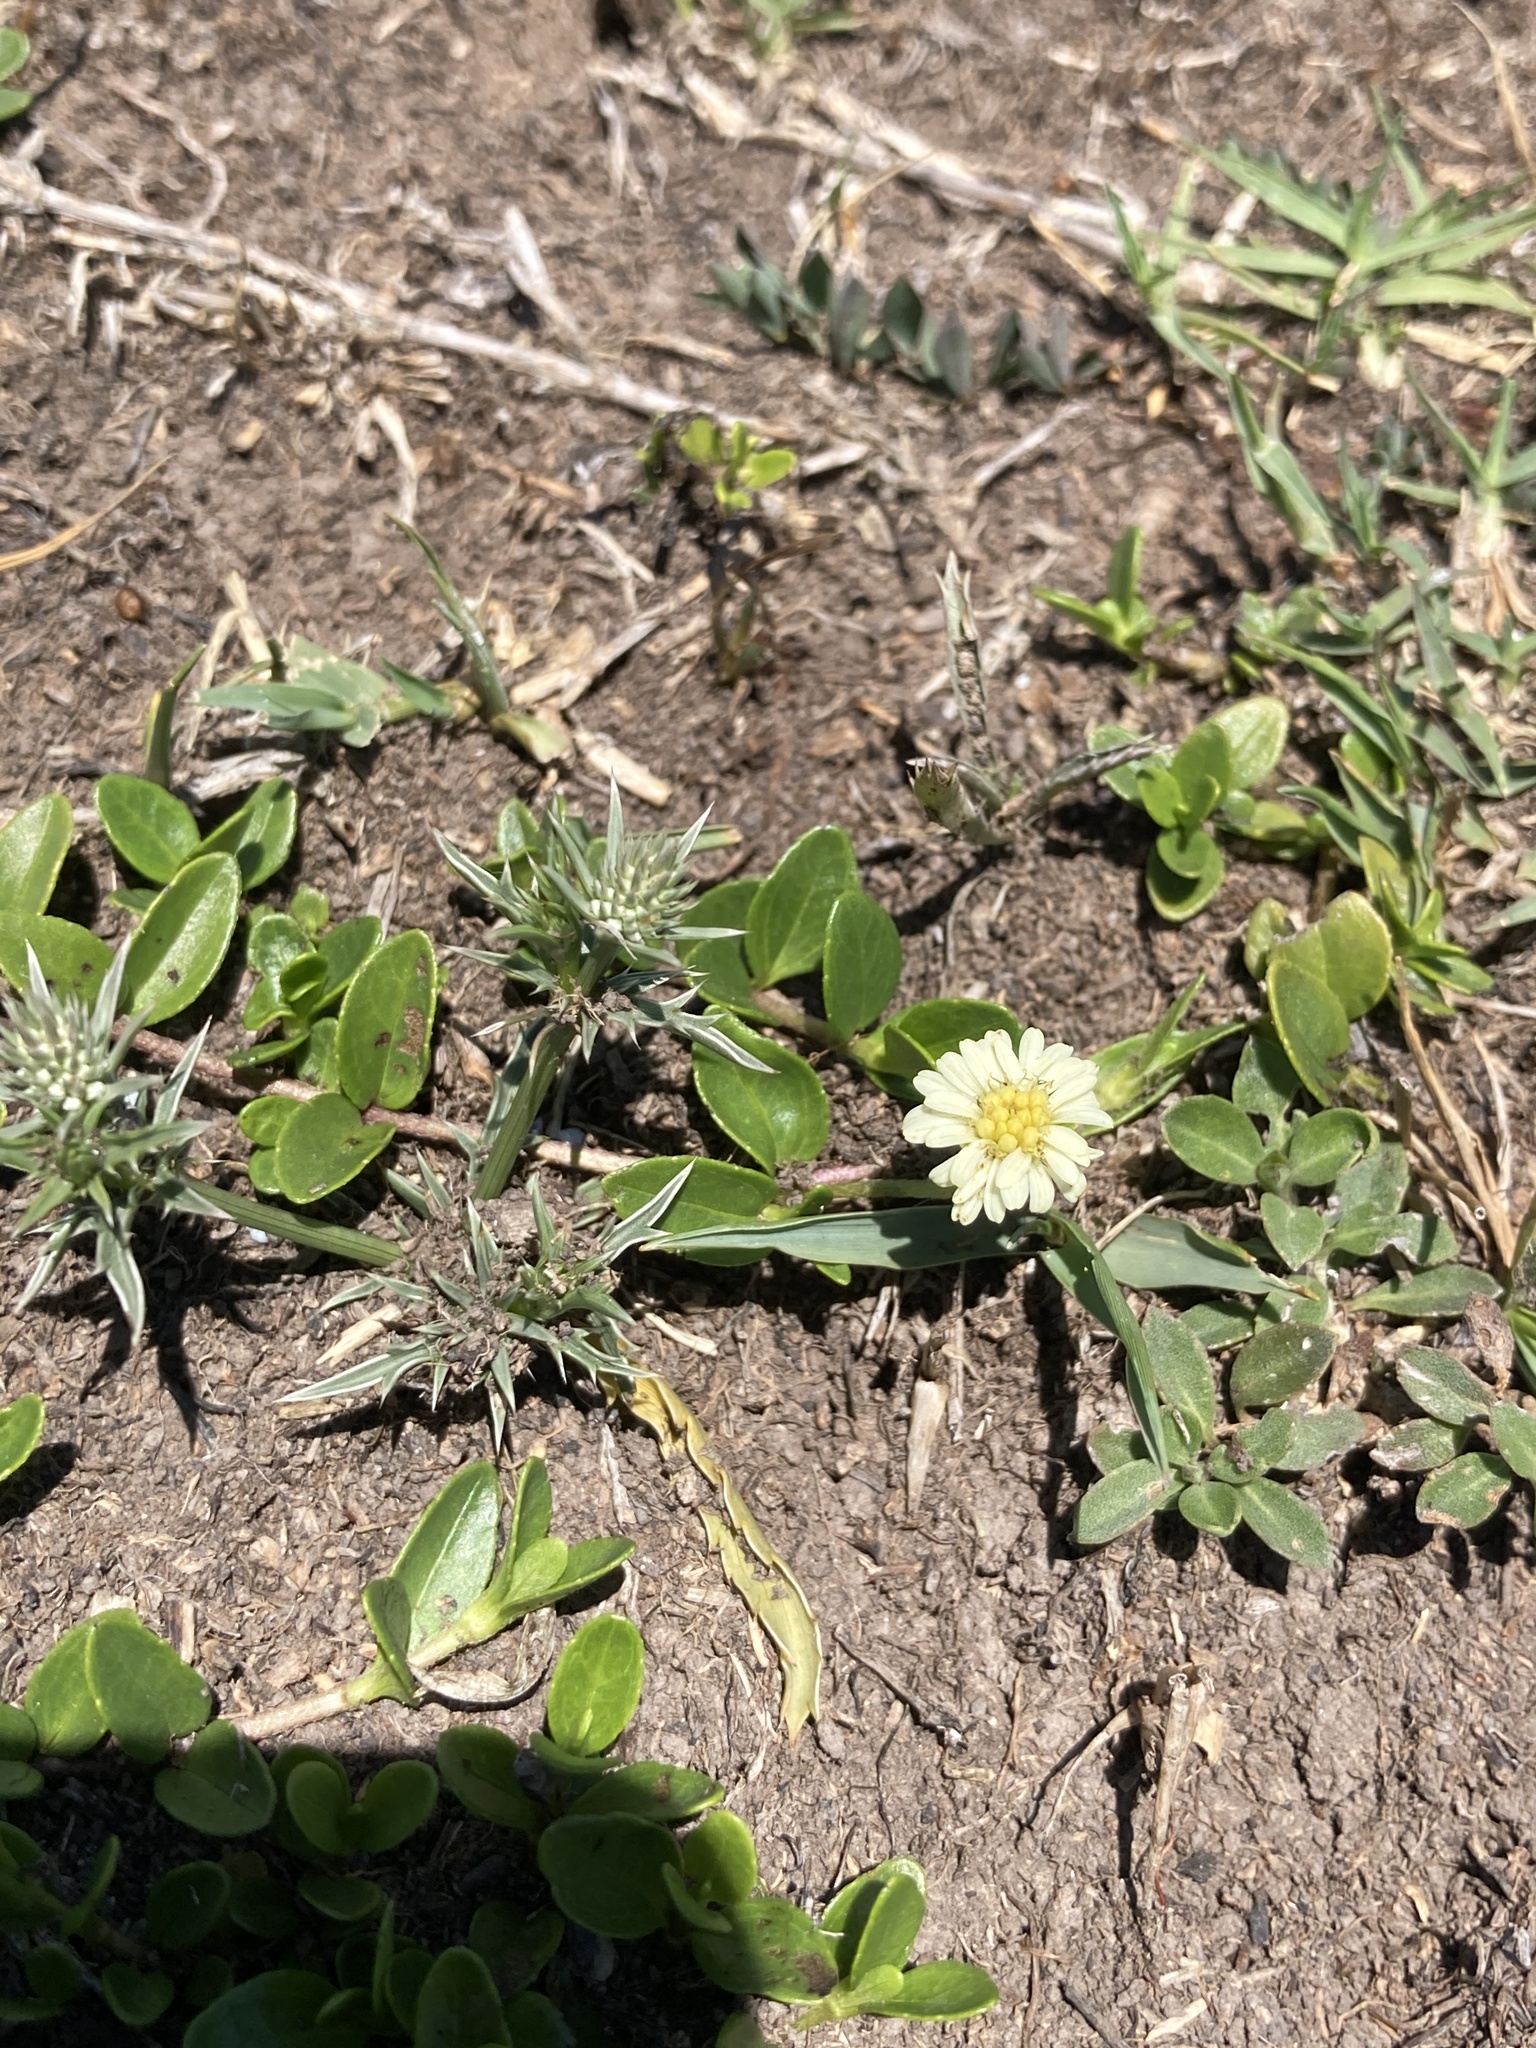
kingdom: Plantae
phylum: Tracheophyta
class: Magnoliopsida
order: Asterales
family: Asteraceae
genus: Eclipta
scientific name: Eclipta elliptica
